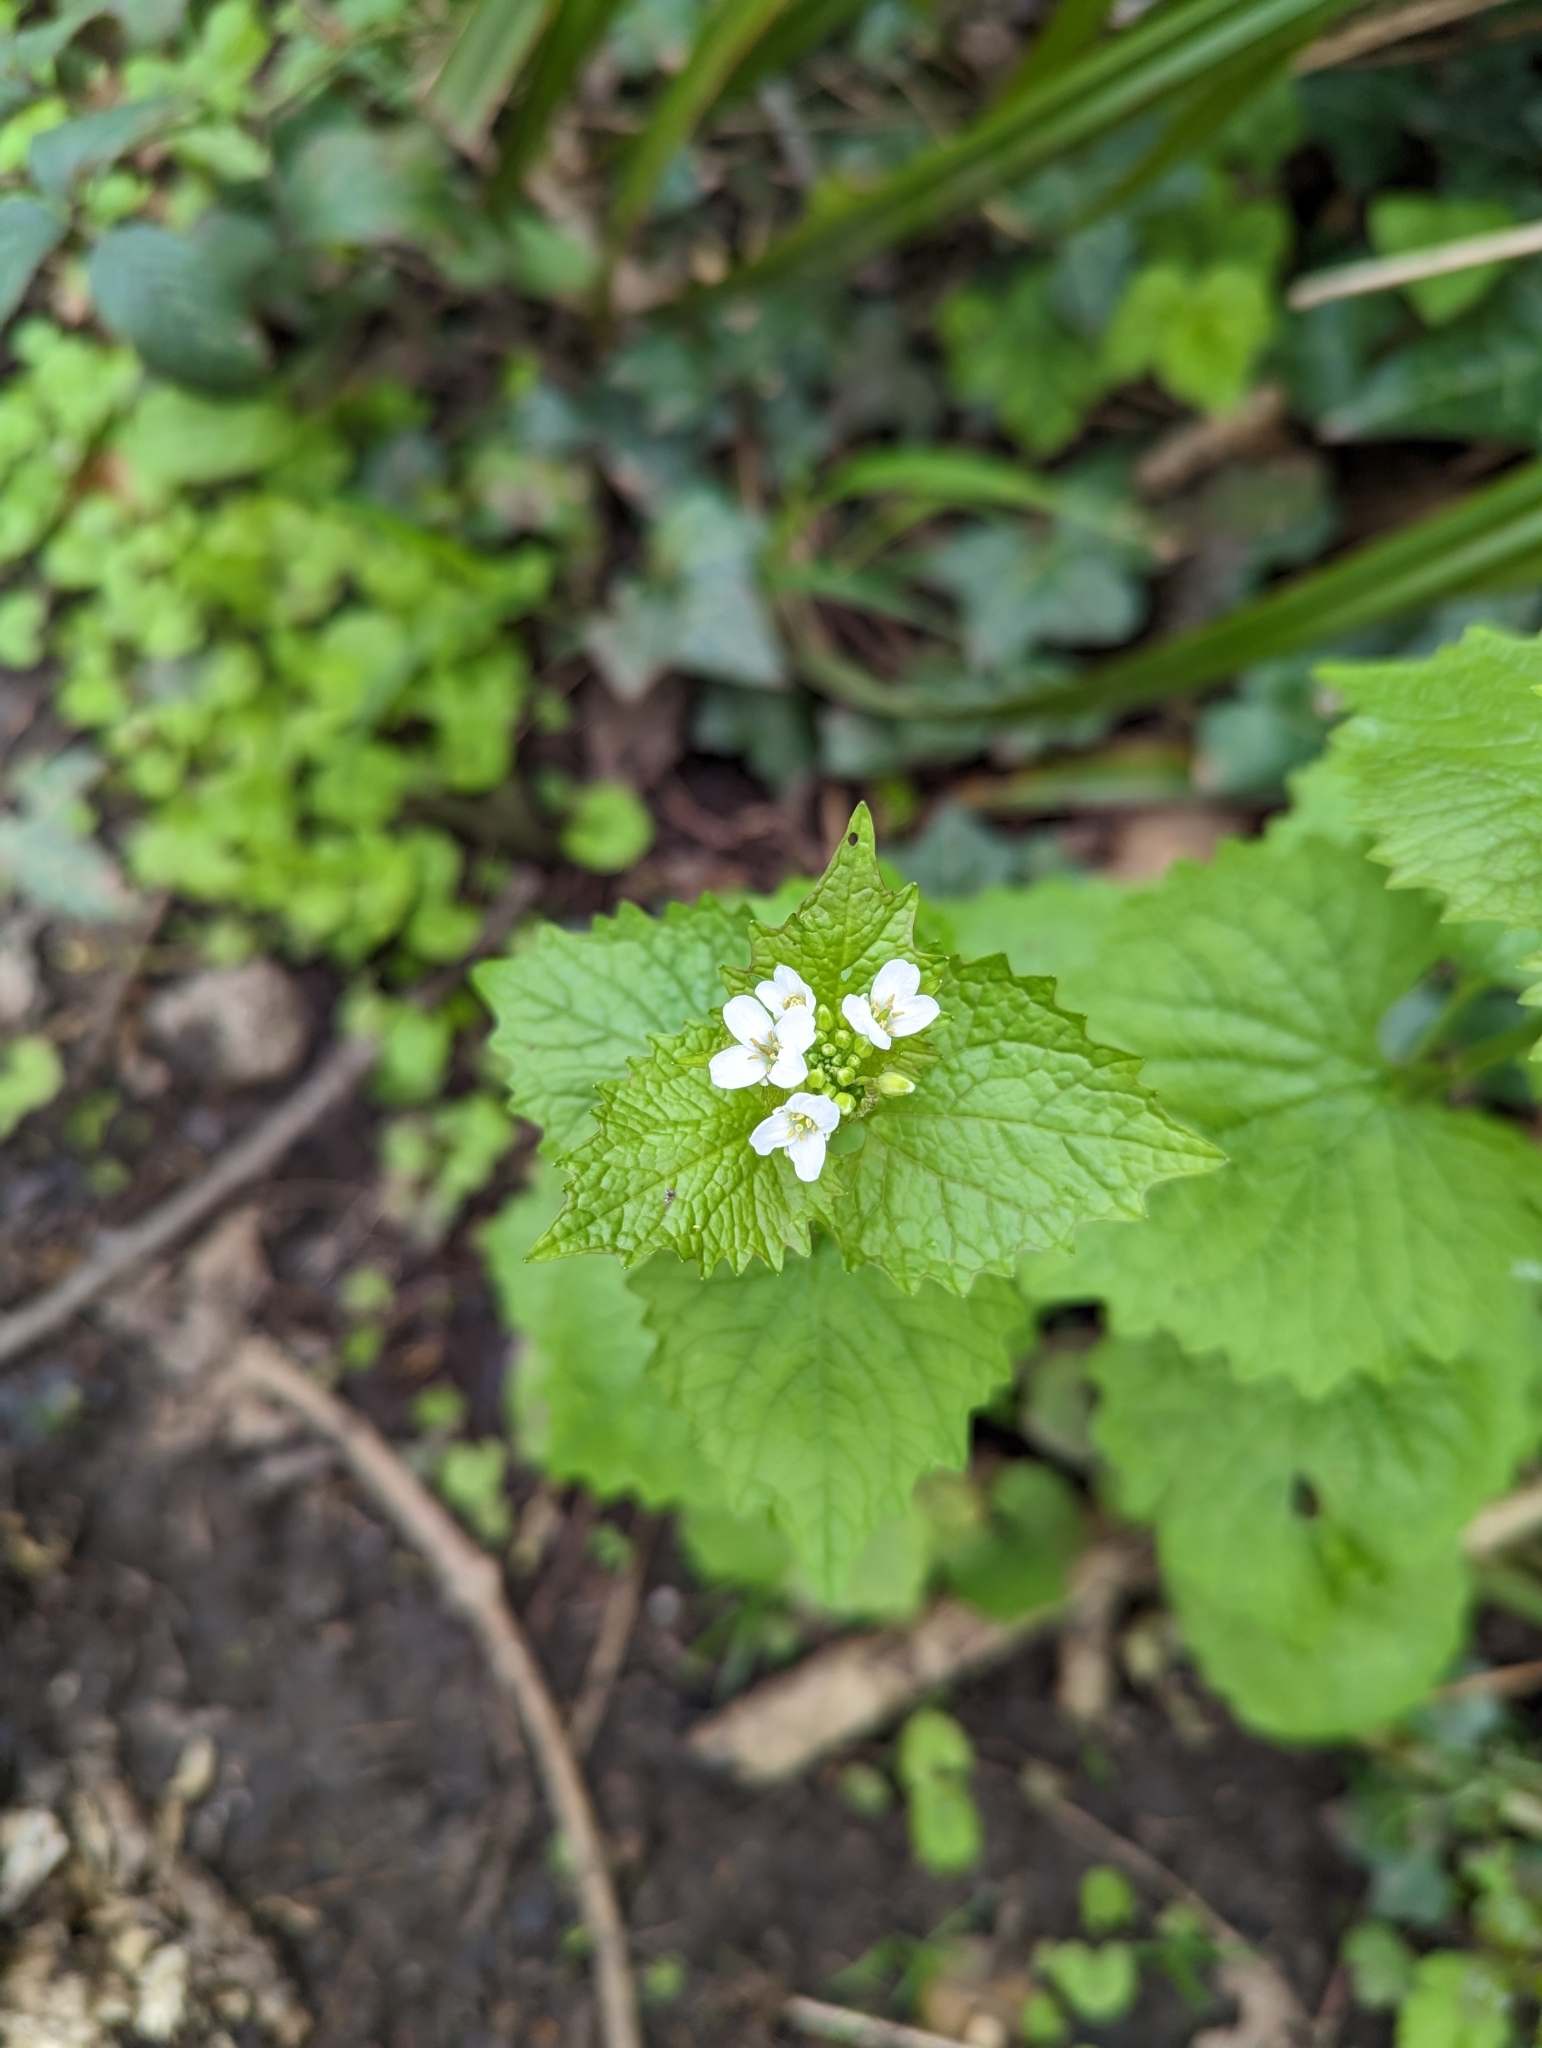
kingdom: Plantae
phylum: Tracheophyta
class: Magnoliopsida
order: Brassicales
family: Brassicaceae
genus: Alliaria
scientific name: Alliaria petiolata
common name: Garlic mustard
